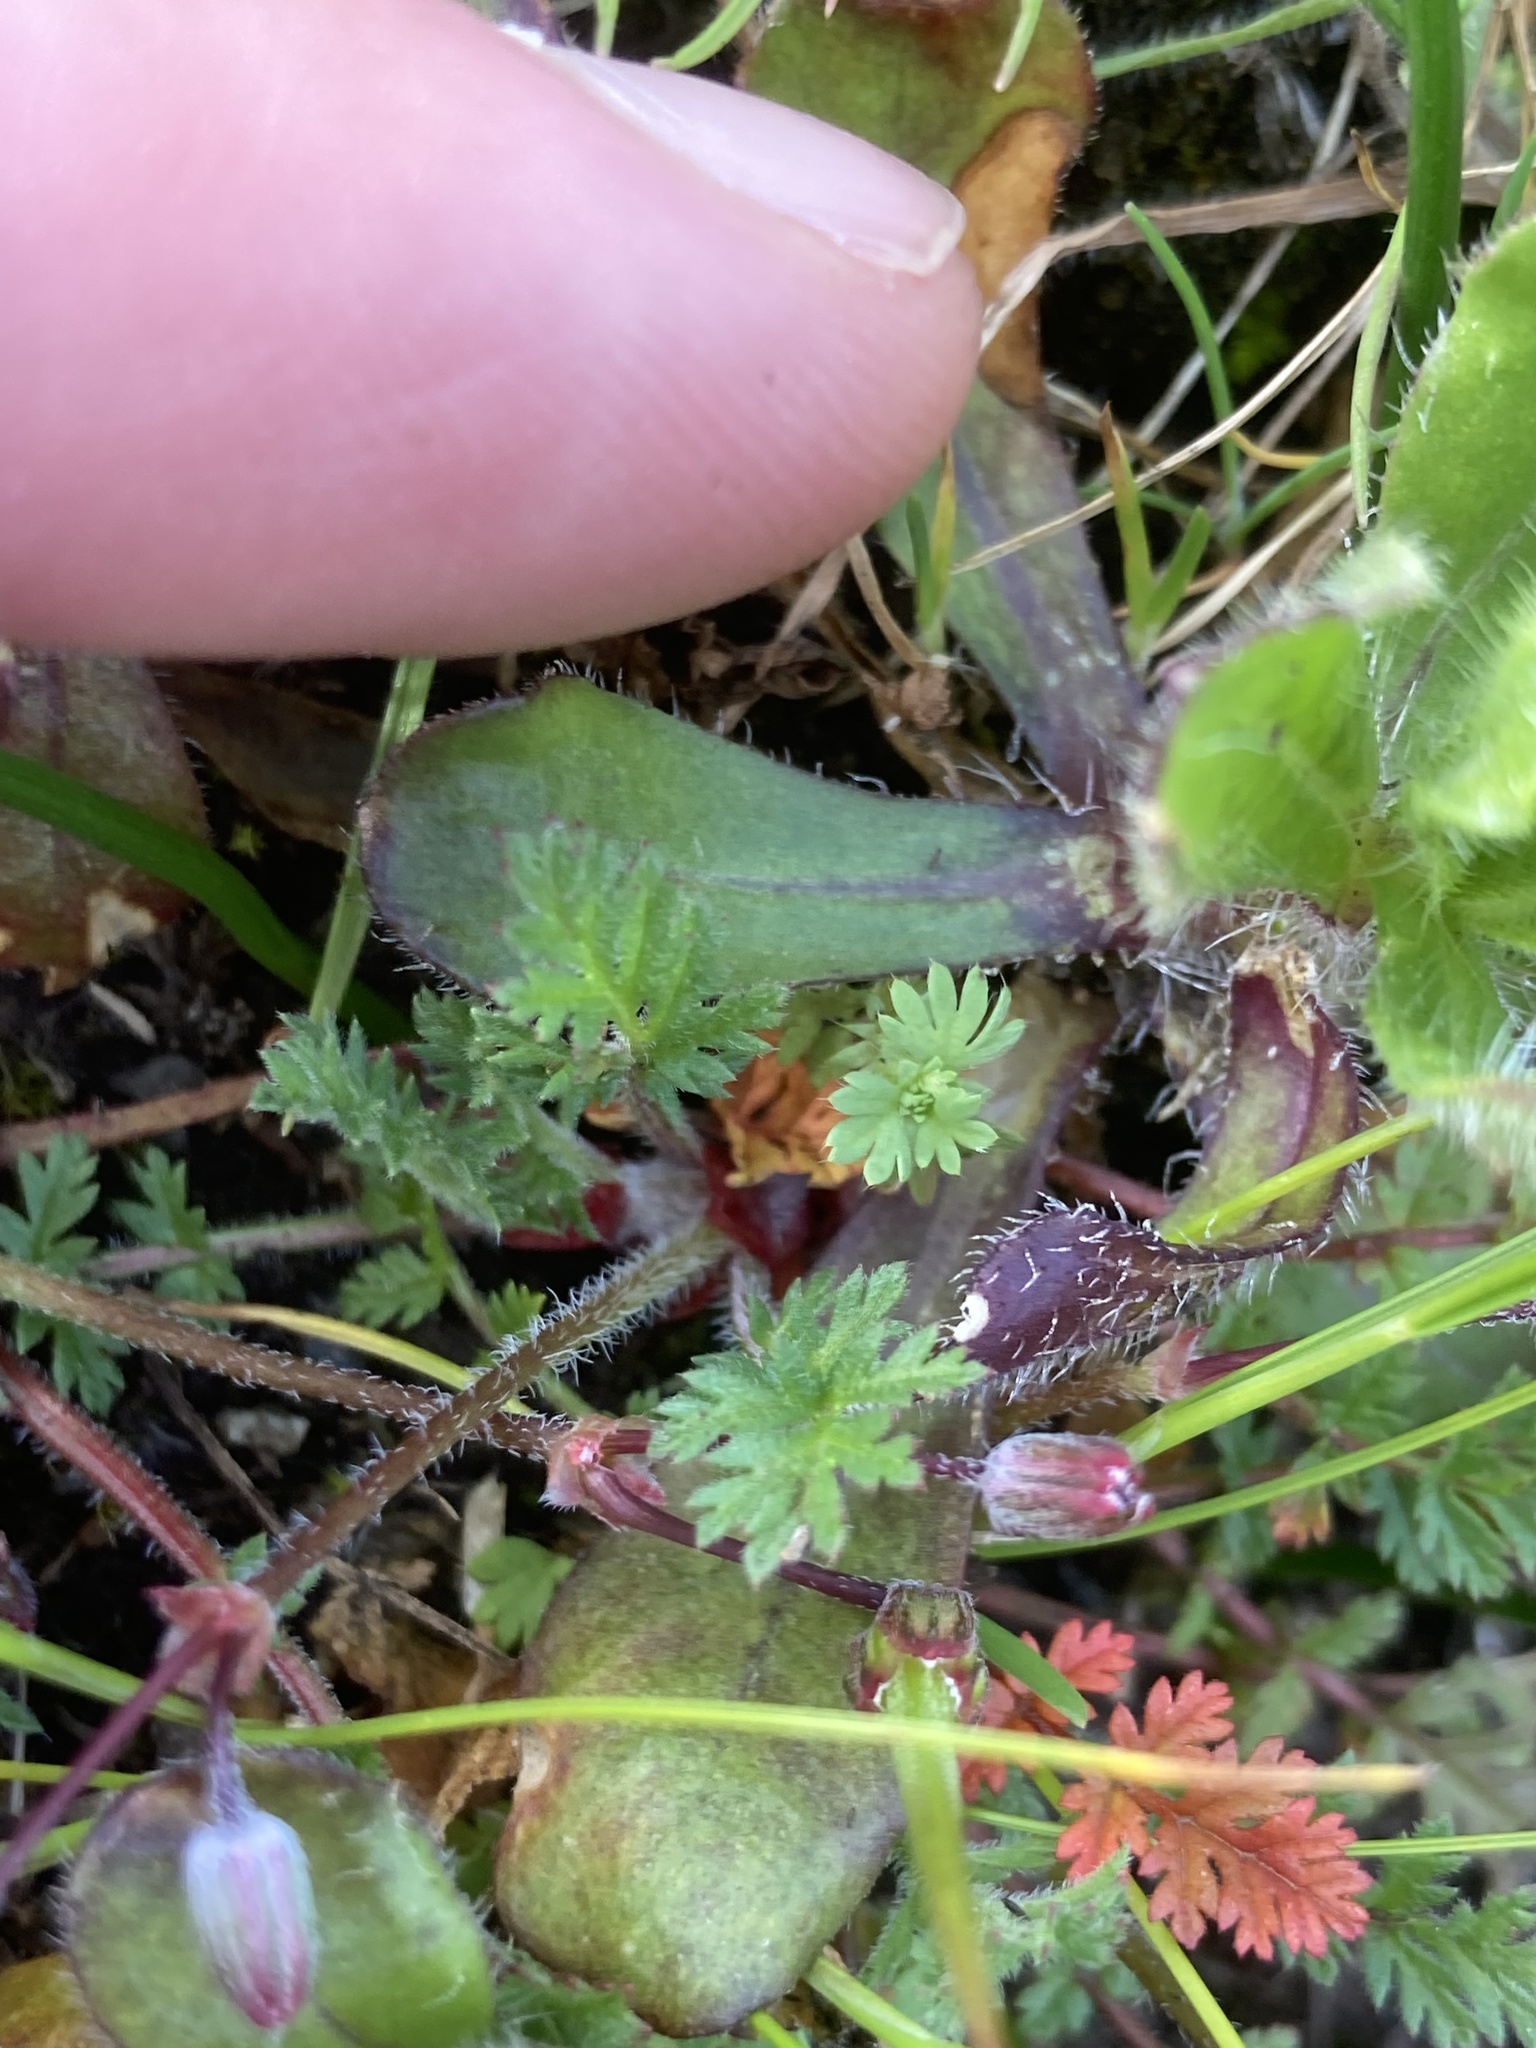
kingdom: Plantae
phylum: Tracheophyta
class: Magnoliopsida
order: Geraniales
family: Geraniaceae
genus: Erodium
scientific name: Erodium cicutarium
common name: Common stork's-bill
